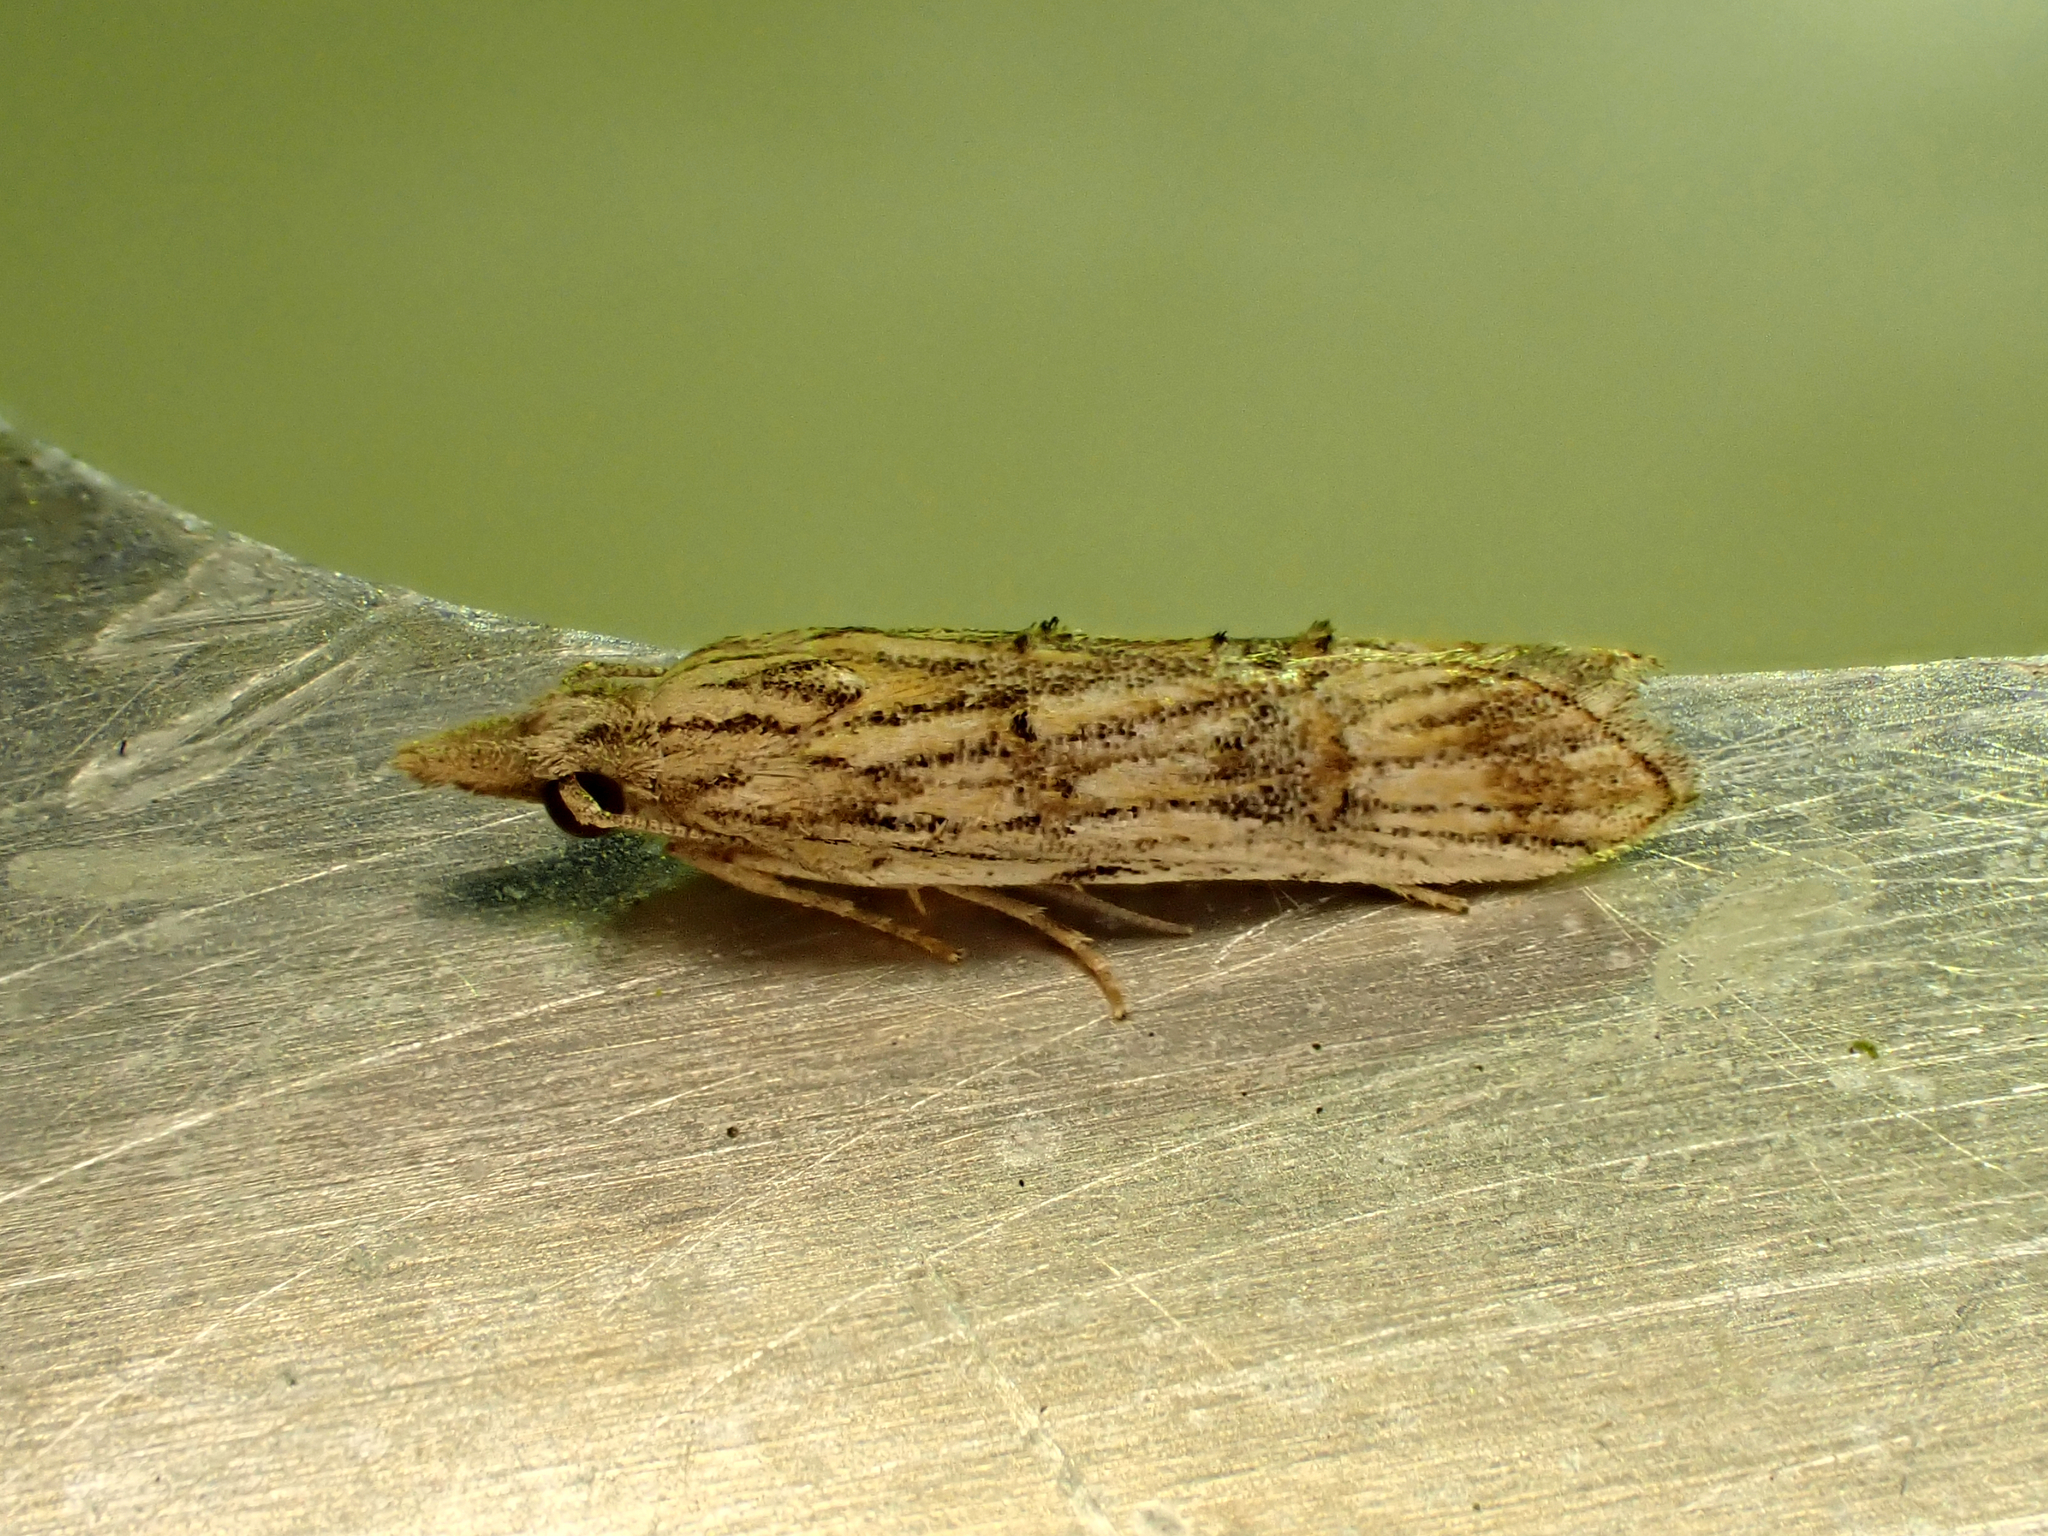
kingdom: Animalia
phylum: Arthropoda
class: Insecta
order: Lepidoptera
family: Carposinidae
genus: Carposina
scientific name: Carposina neurophorella
